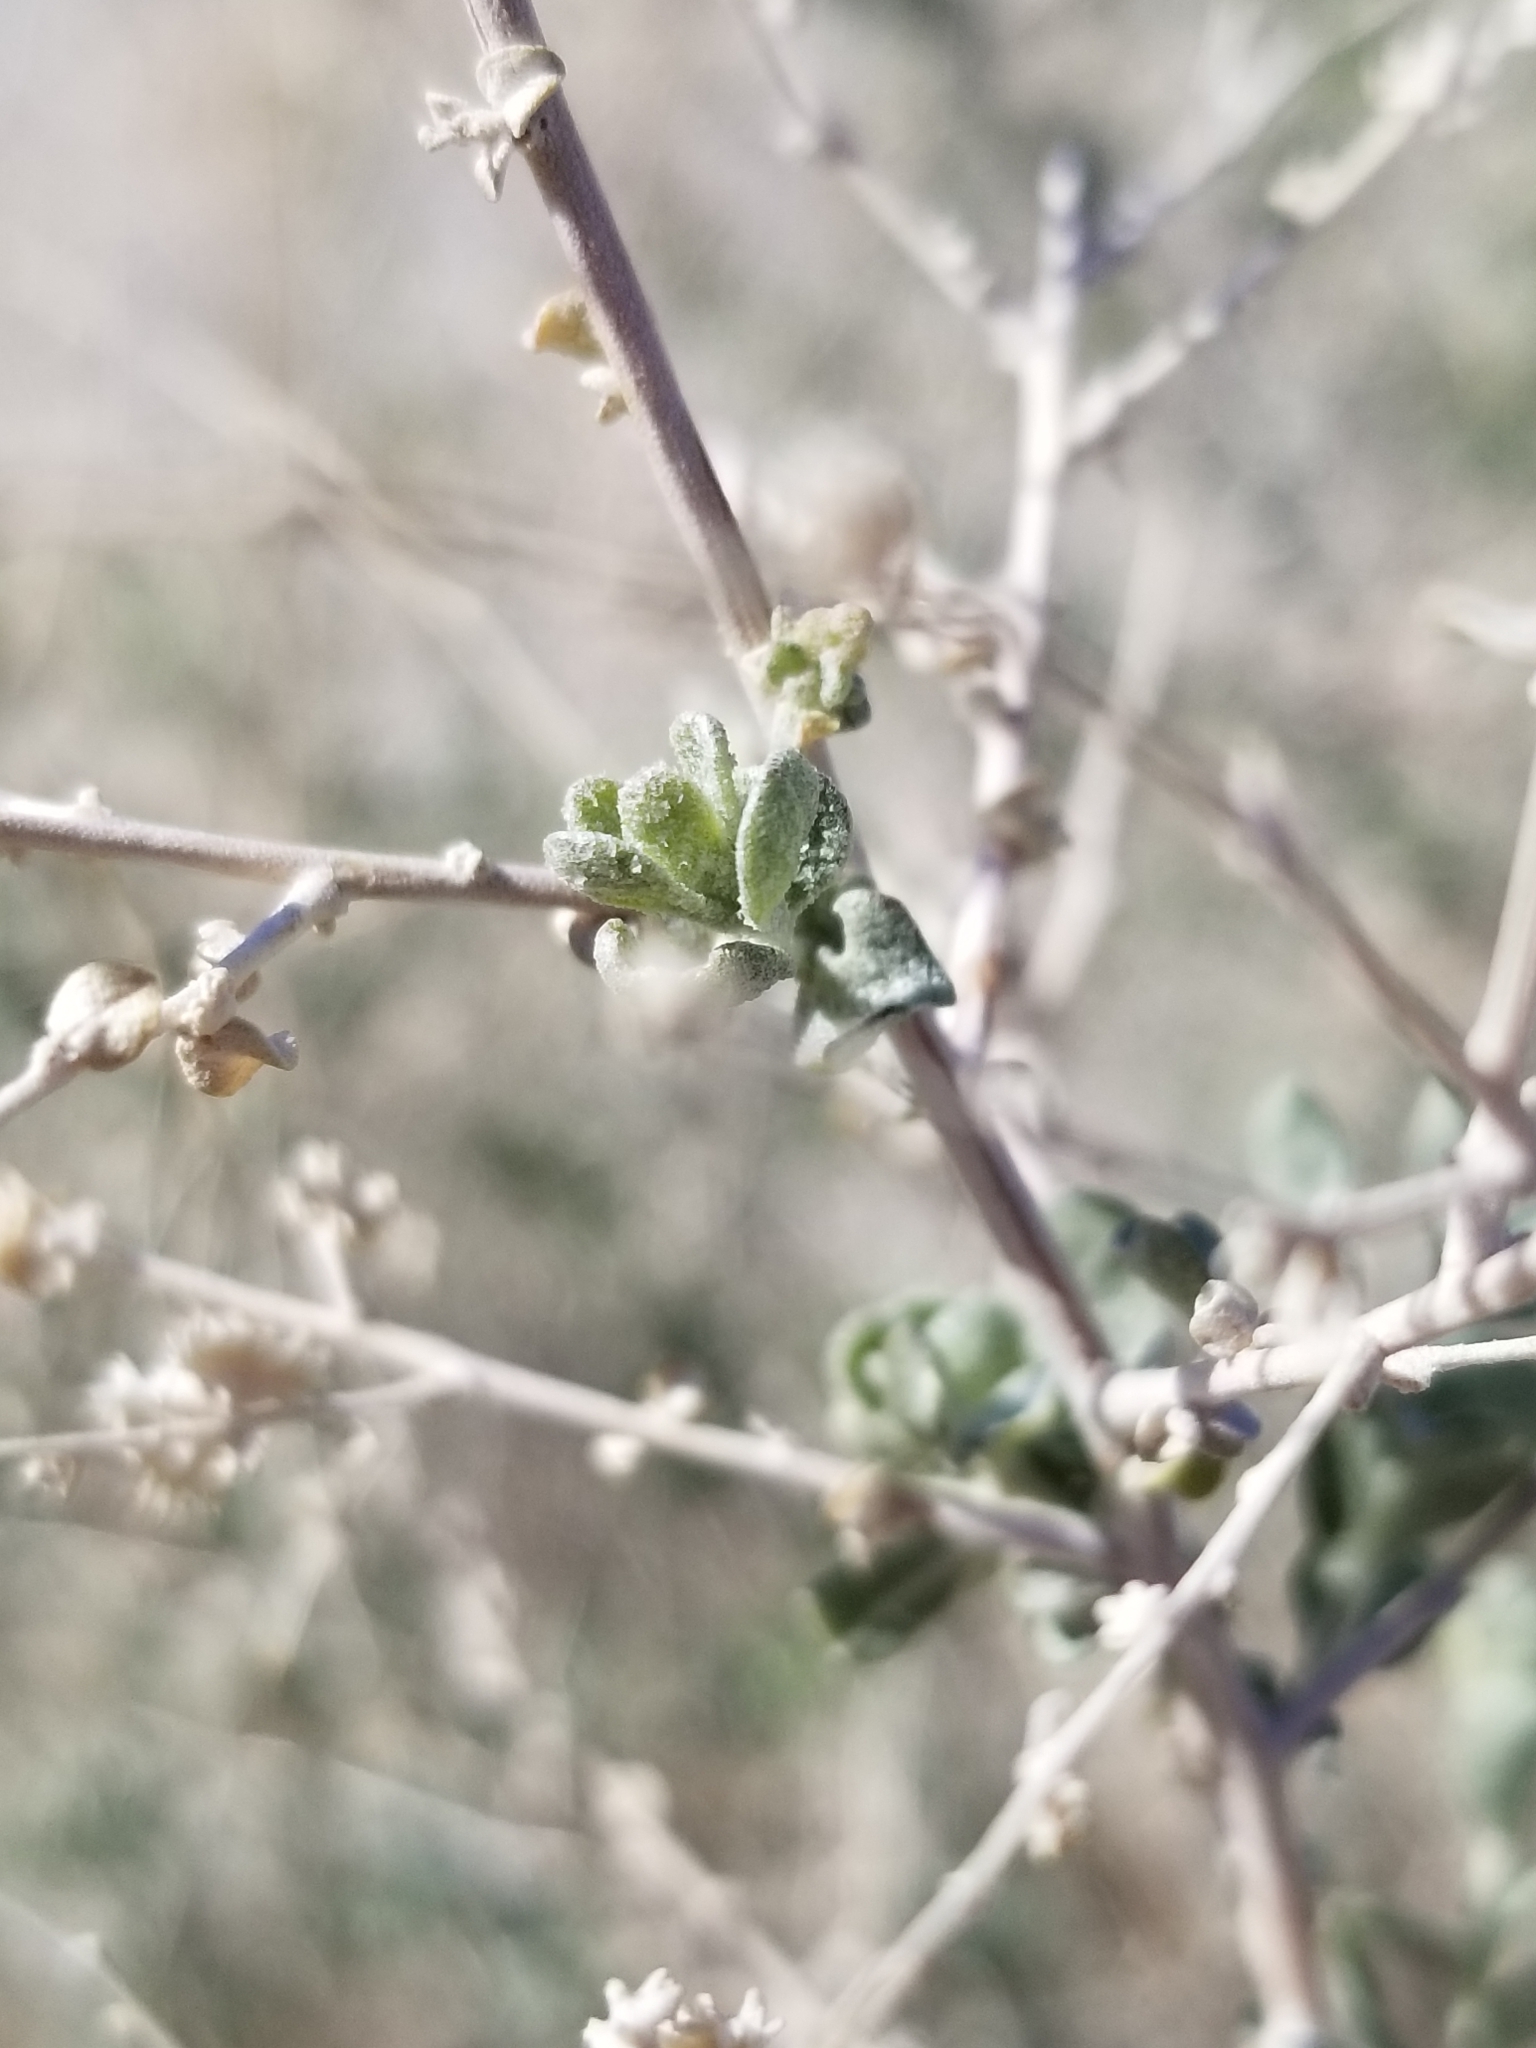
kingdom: Plantae
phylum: Tracheophyta
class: Magnoliopsida
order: Caryophyllales
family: Amaranthaceae
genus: Atriplex
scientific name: Atriplex polycarpa
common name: Desert saltbush
